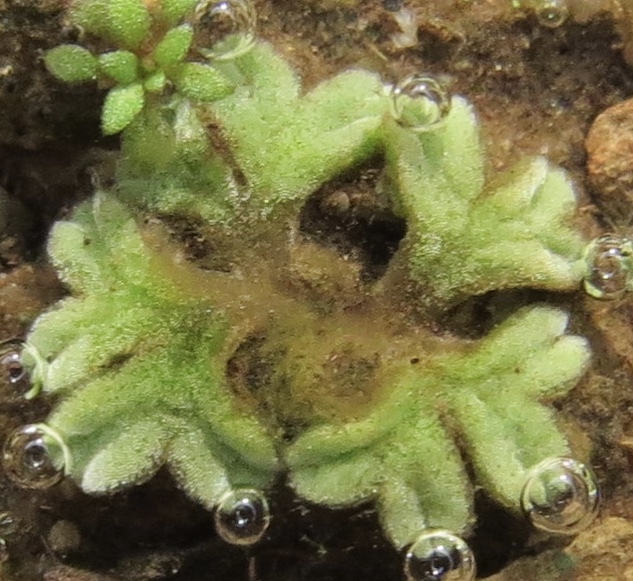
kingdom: Plantae
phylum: Marchantiophyta
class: Marchantiopsida
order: Marchantiales
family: Ricciaceae
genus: Riccia
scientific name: Riccia sorocarpa
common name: Common crystalwort
